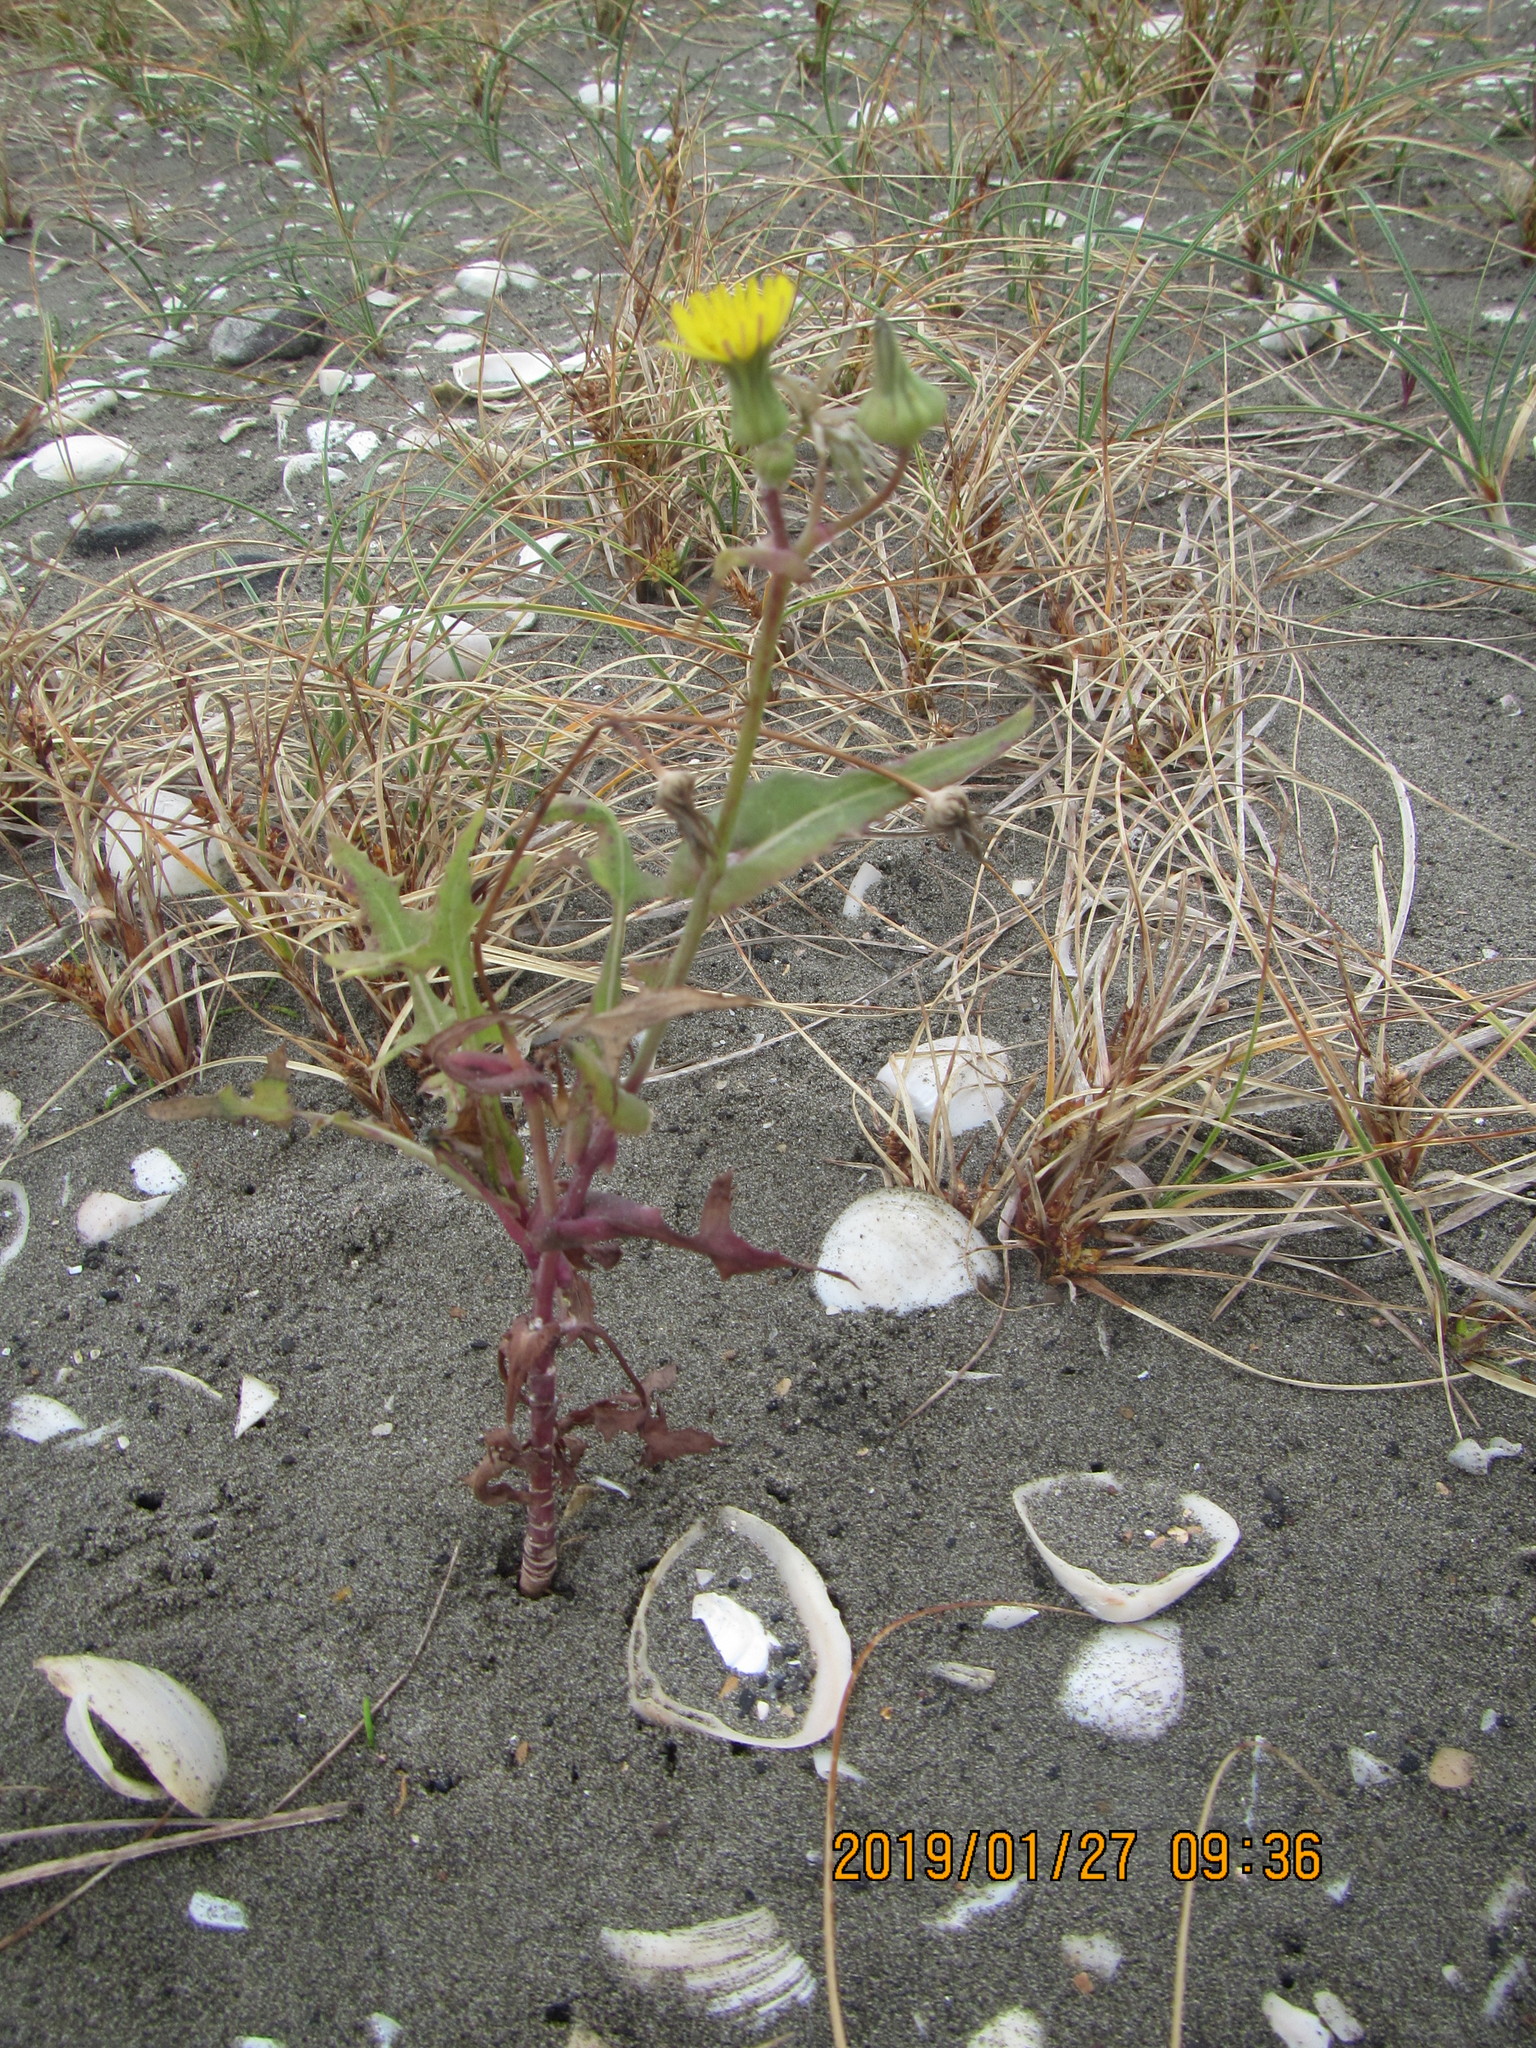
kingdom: Plantae
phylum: Tracheophyta
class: Magnoliopsida
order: Asterales
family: Asteraceae
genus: Sonchus
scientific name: Sonchus oleraceus
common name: Common sowthistle
